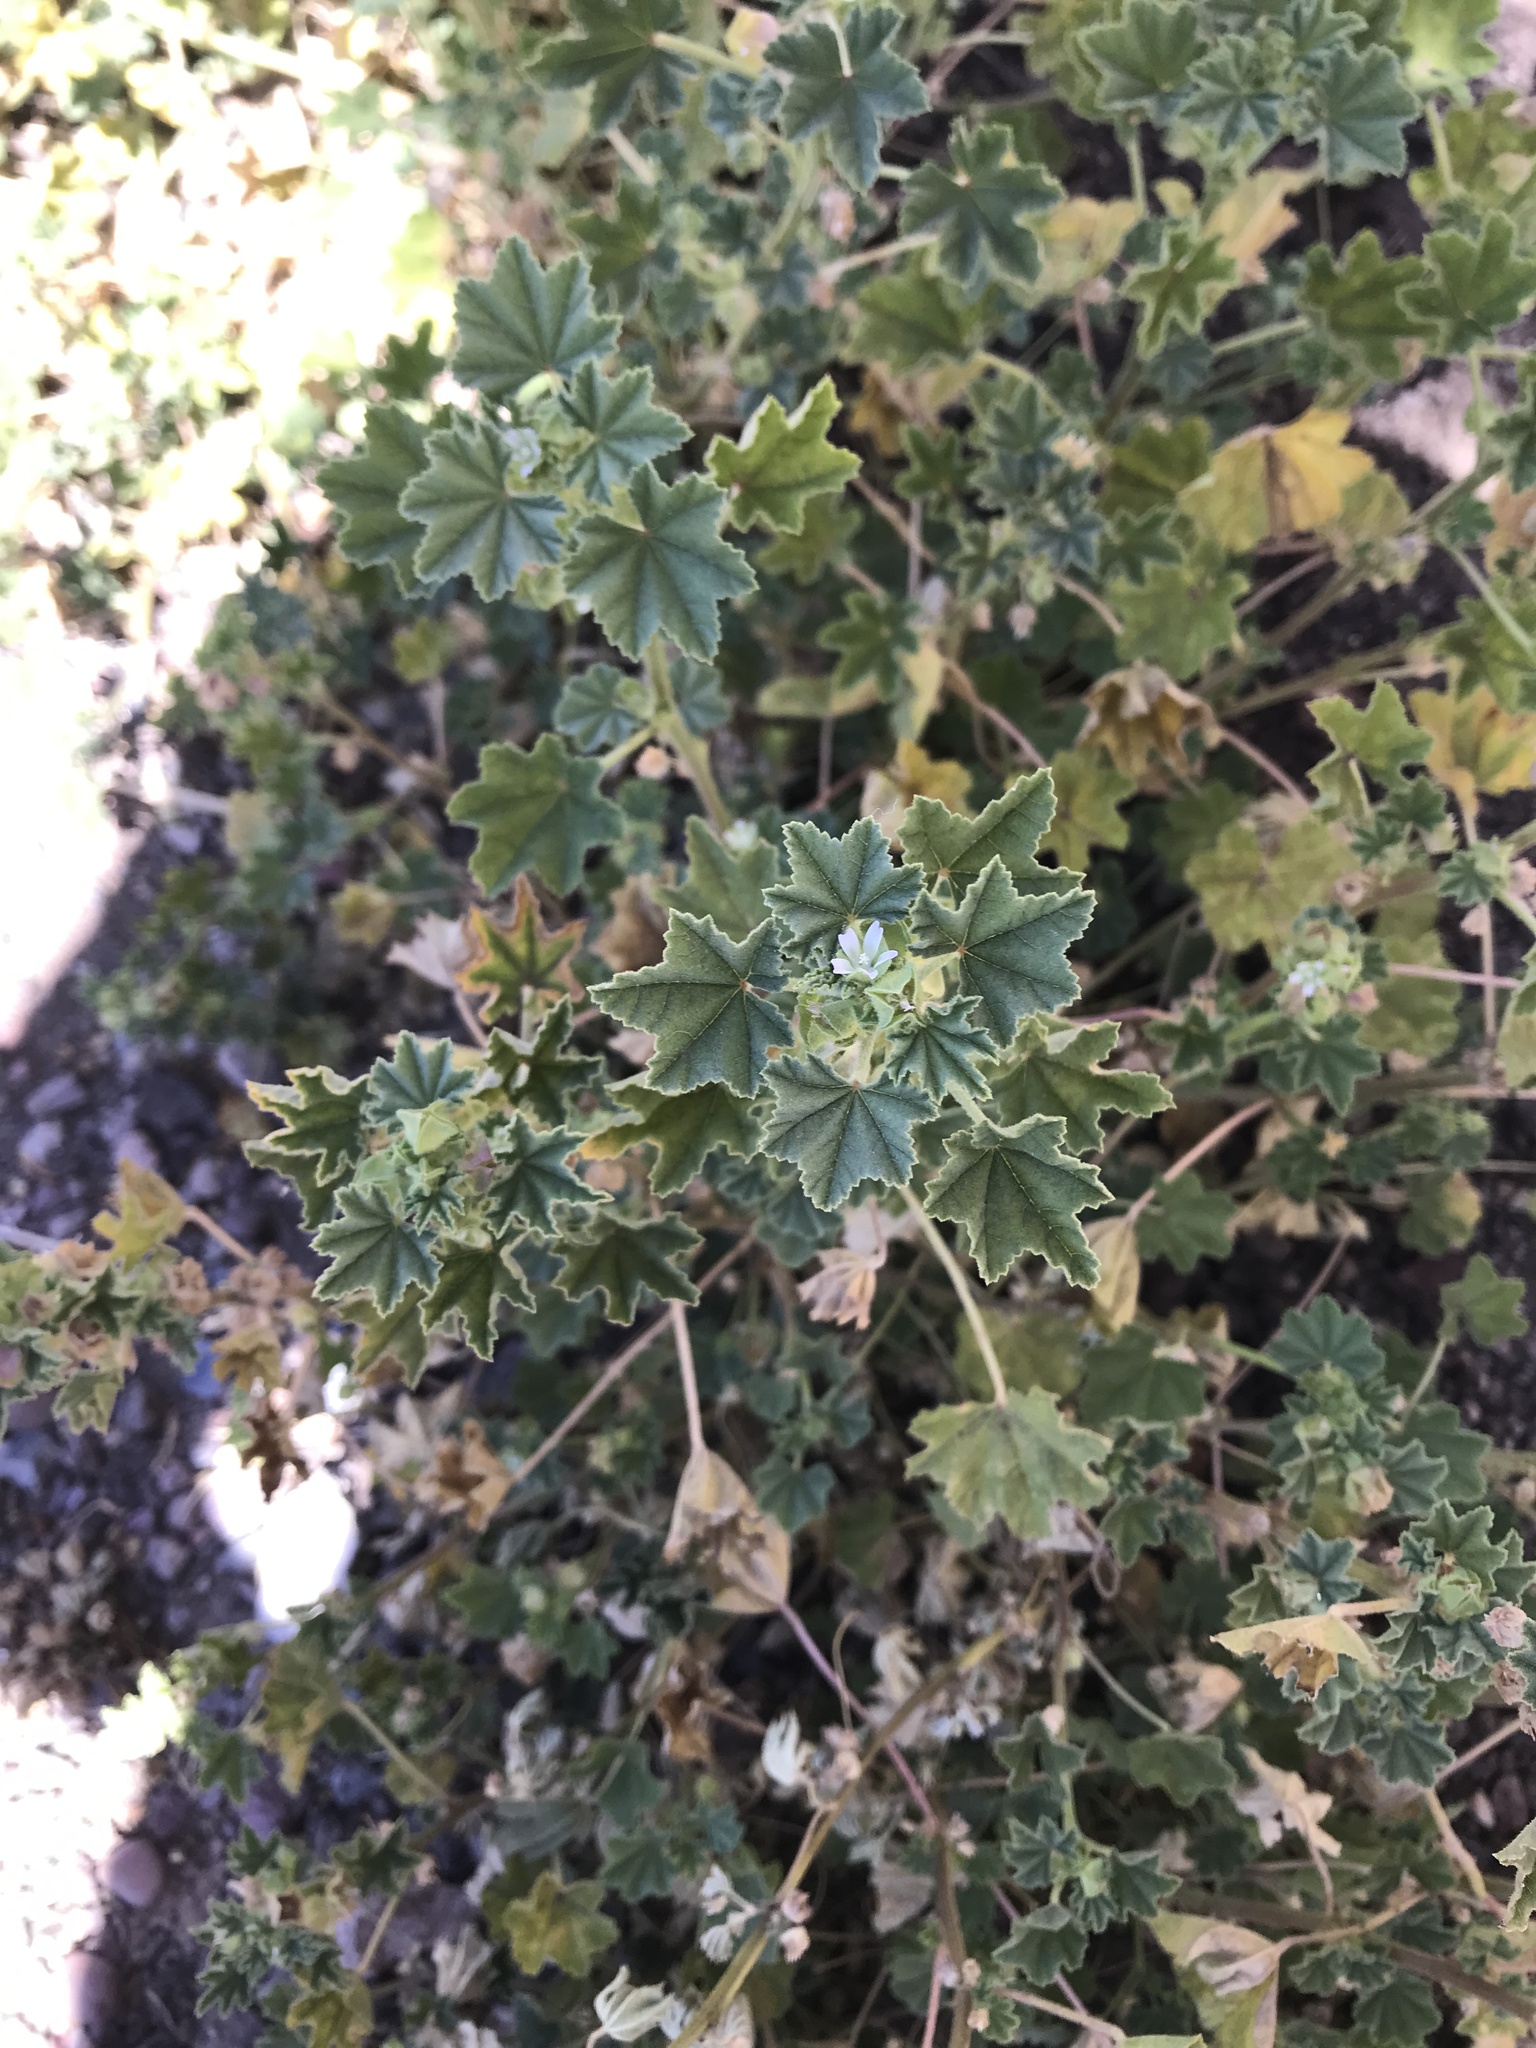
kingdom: Plantae
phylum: Tracheophyta
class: Magnoliopsida
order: Malvales
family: Malvaceae
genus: Malva
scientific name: Malva parviflora
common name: Least mallow
